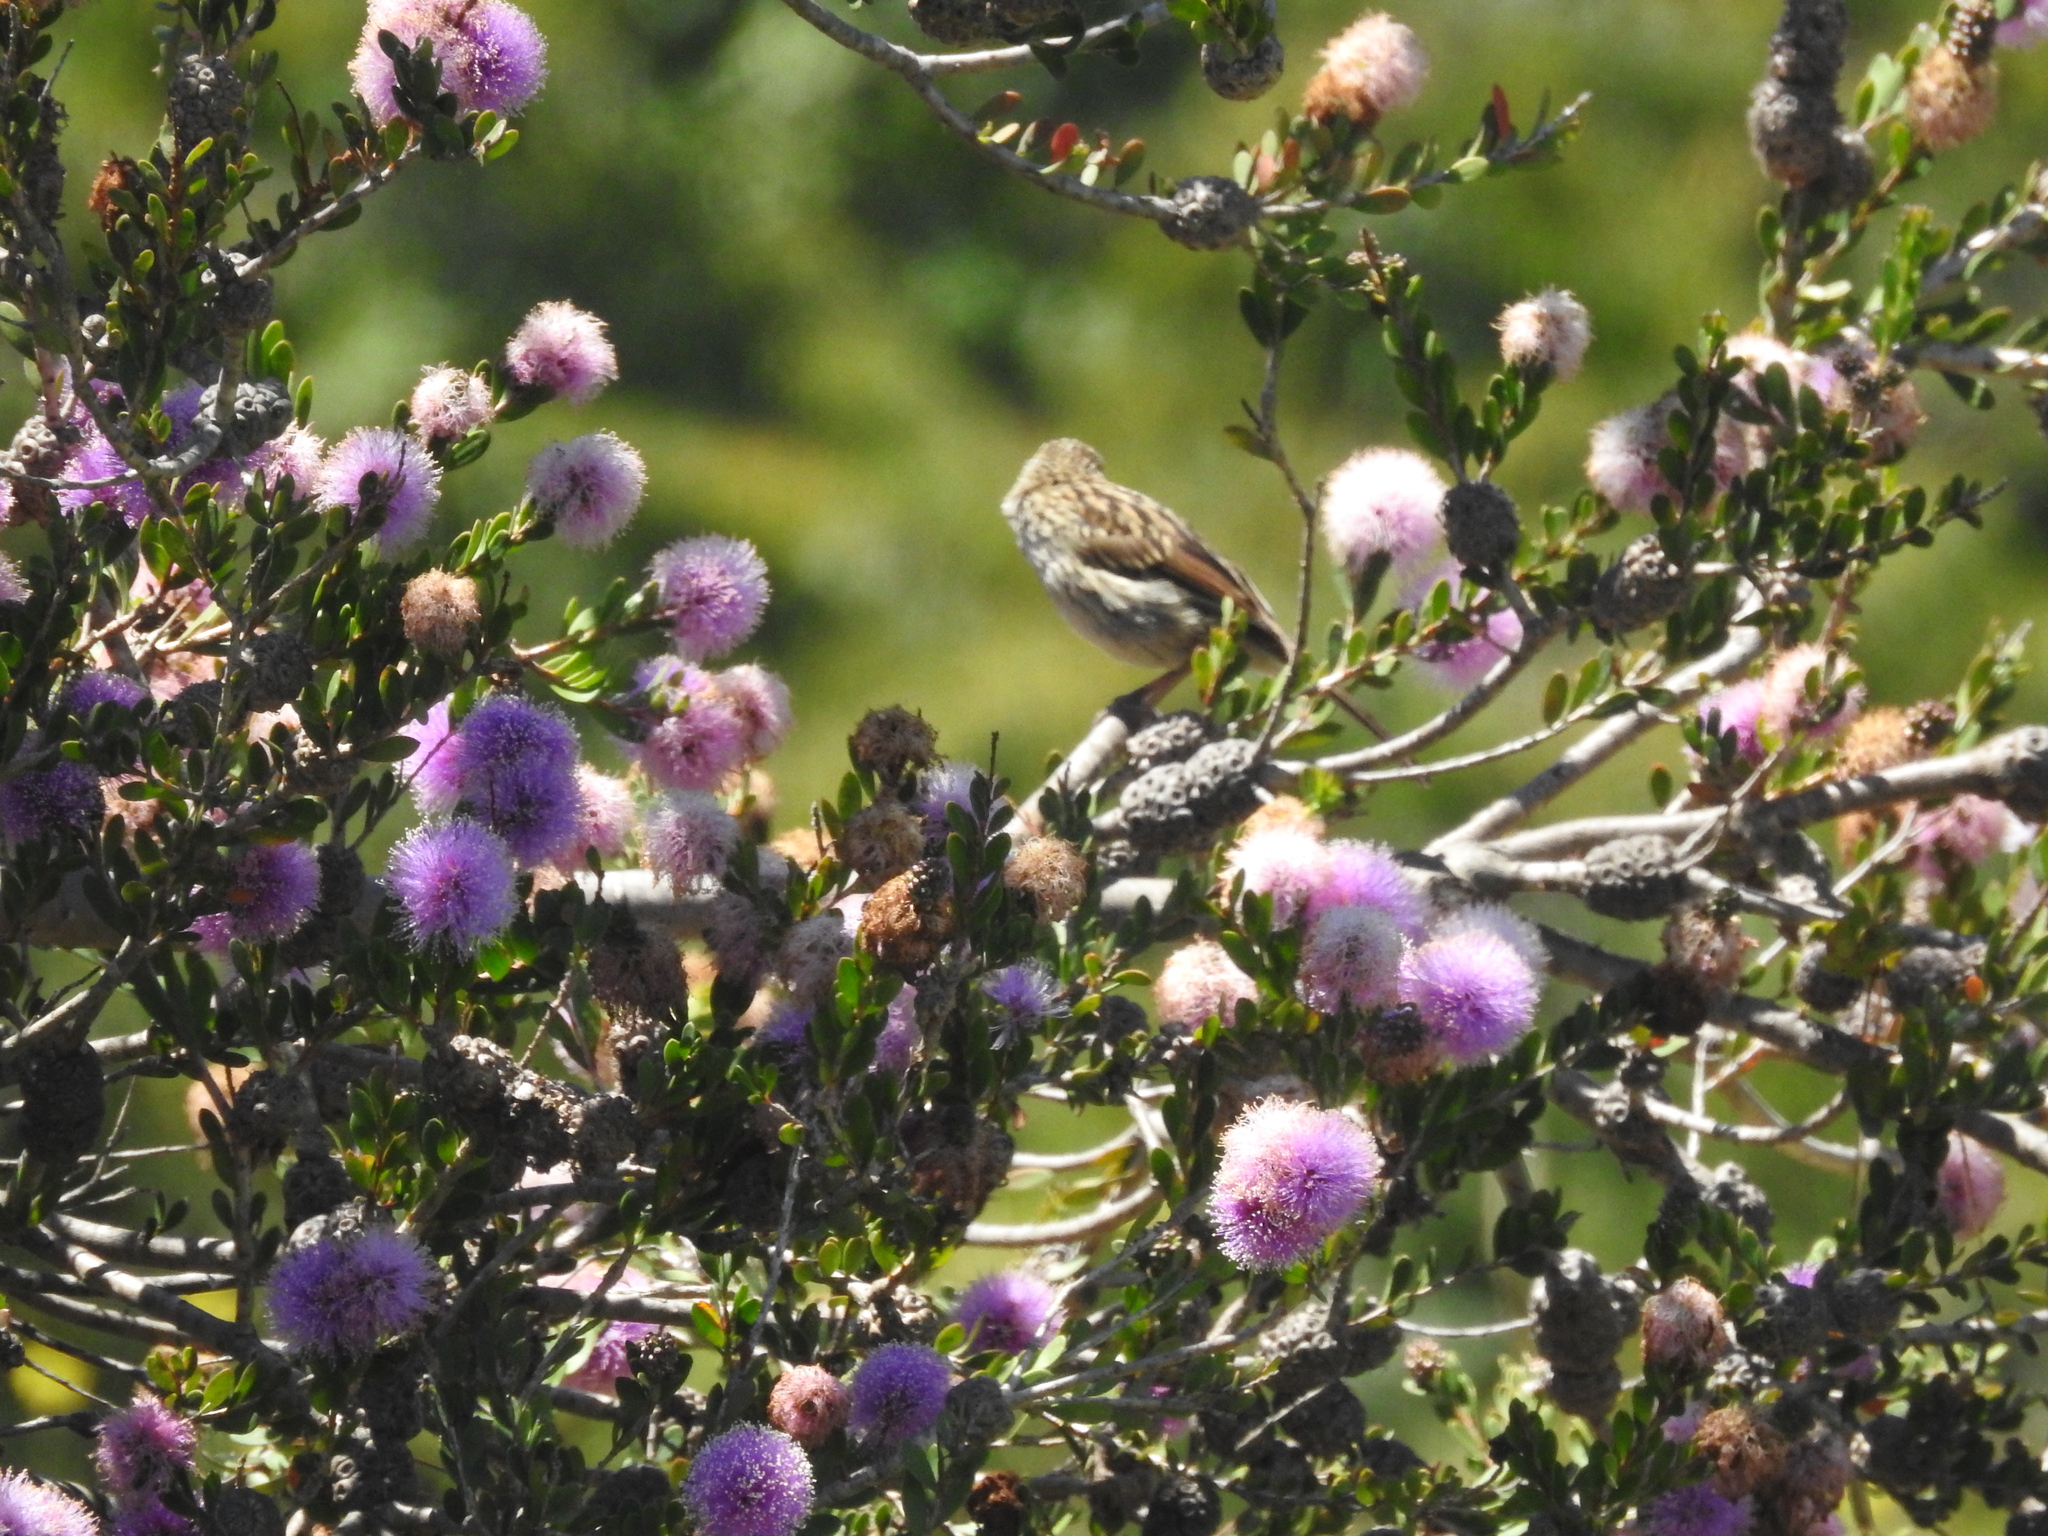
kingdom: Animalia
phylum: Chordata
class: Aves
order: Passeriformes
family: Passerellidae
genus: Melospiza
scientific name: Melospiza melodia
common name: Song sparrow
